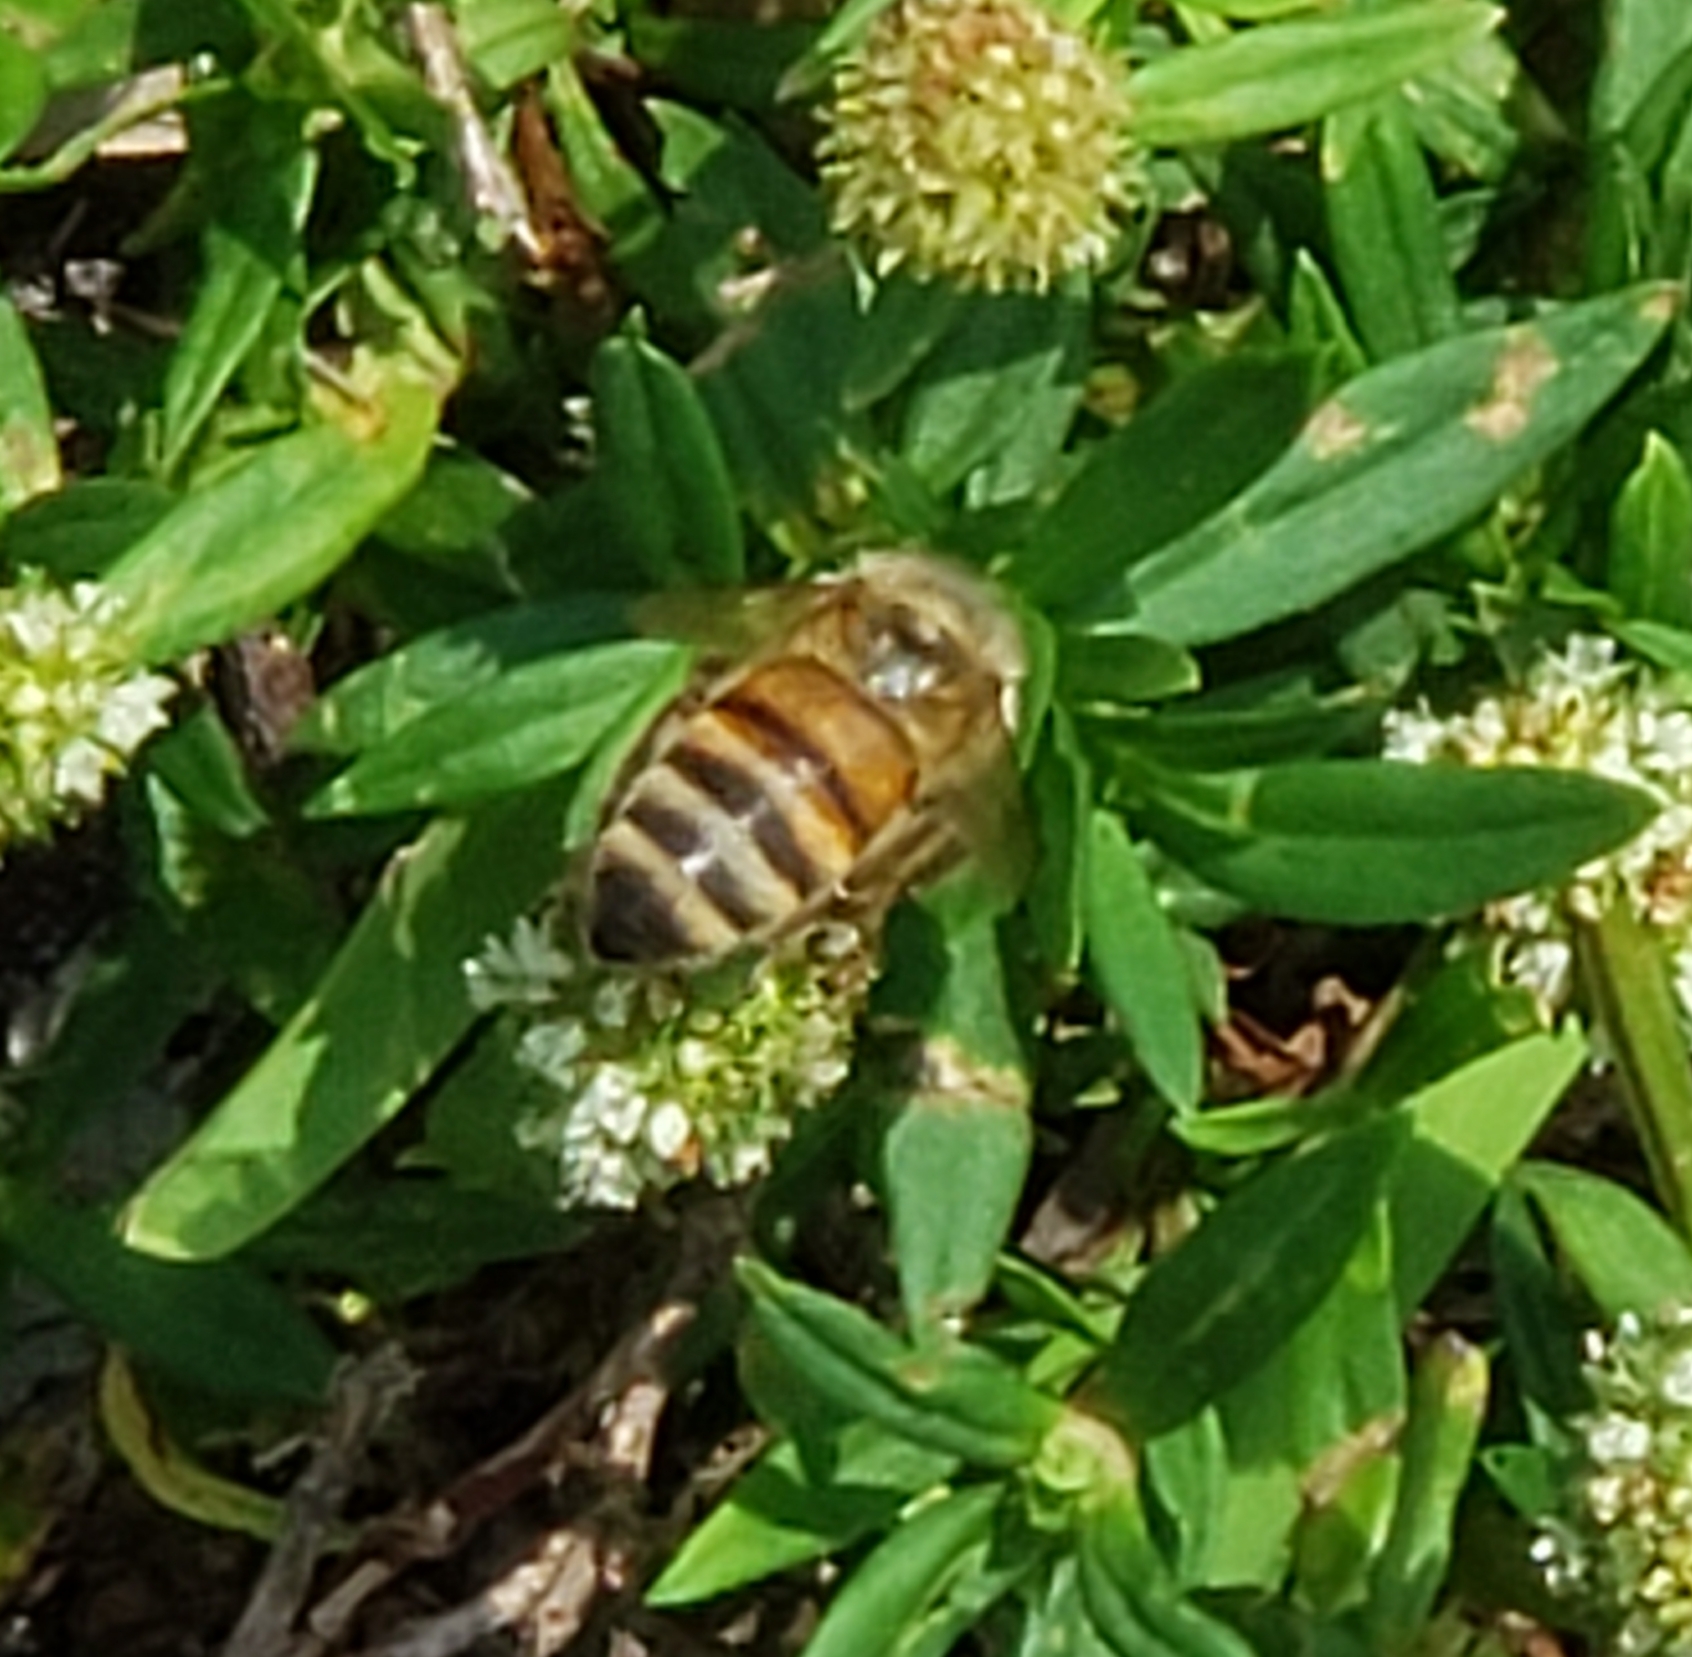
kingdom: Animalia
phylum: Arthropoda
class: Insecta
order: Hymenoptera
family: Apidae
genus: Apis
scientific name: Apis mellifera
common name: Honey bee
